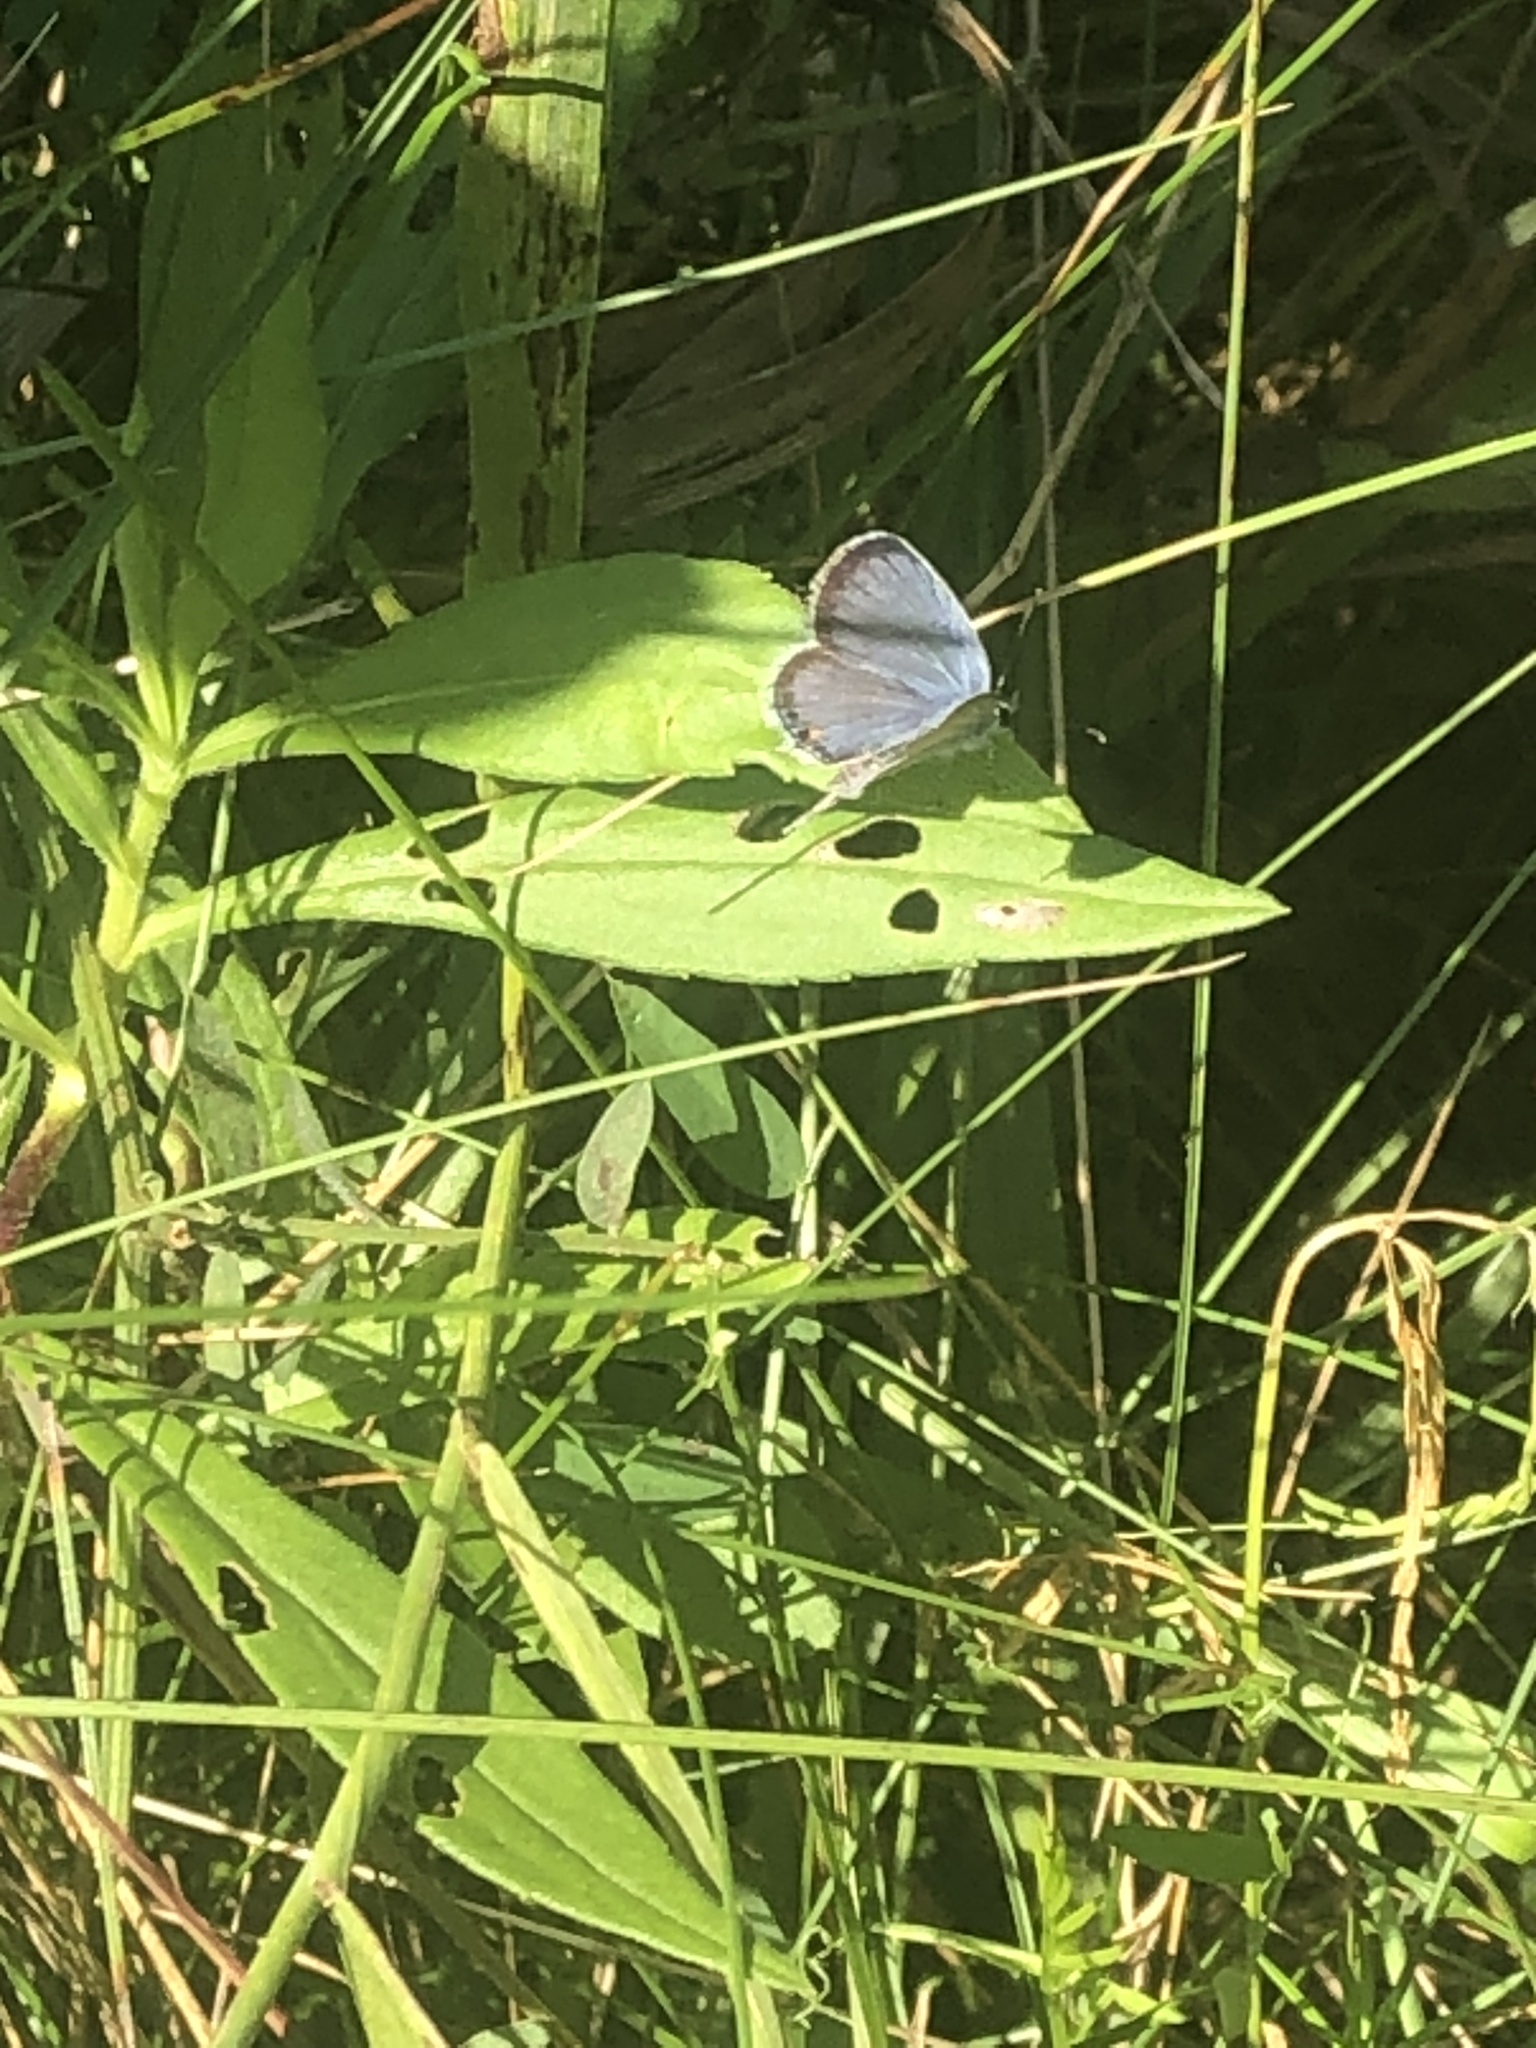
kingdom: Animalia
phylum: Arthropoda
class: Insecta
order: Lepidoptera
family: Lycaenidae
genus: Elkalyce
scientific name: Elkalyce comyntas
